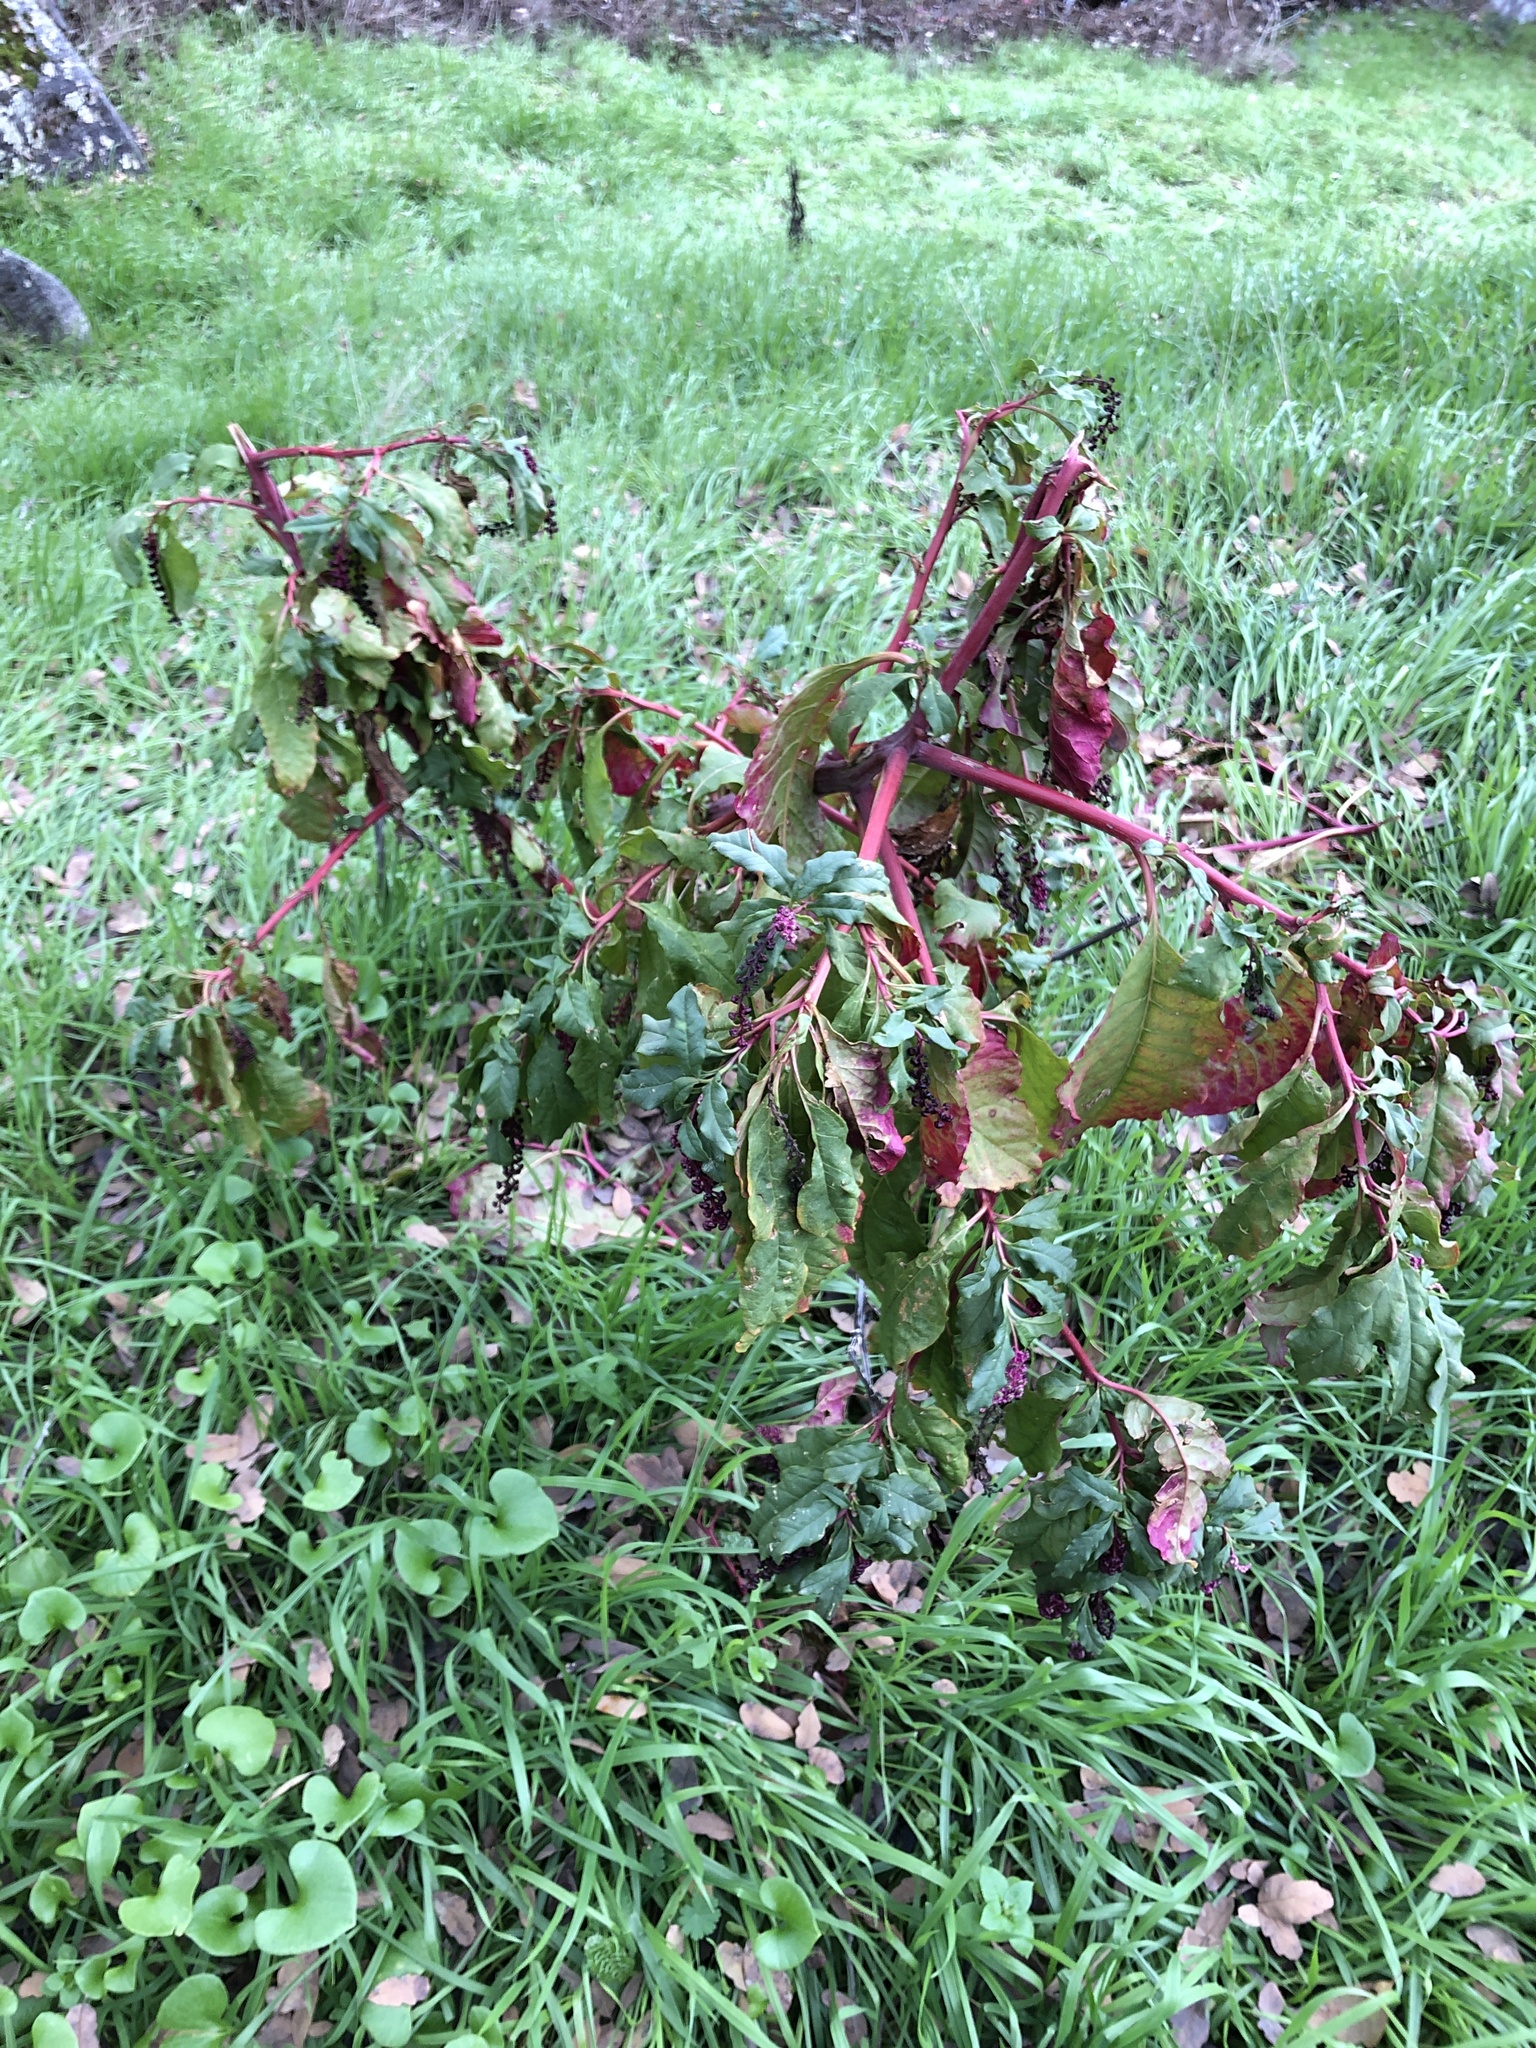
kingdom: Plantae
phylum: Tracheophyta
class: Magnoliopsida
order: Caryophyllales
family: Phytolaccaceae
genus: Phytolacca
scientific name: Phytolacca americana
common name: American pokeweed
